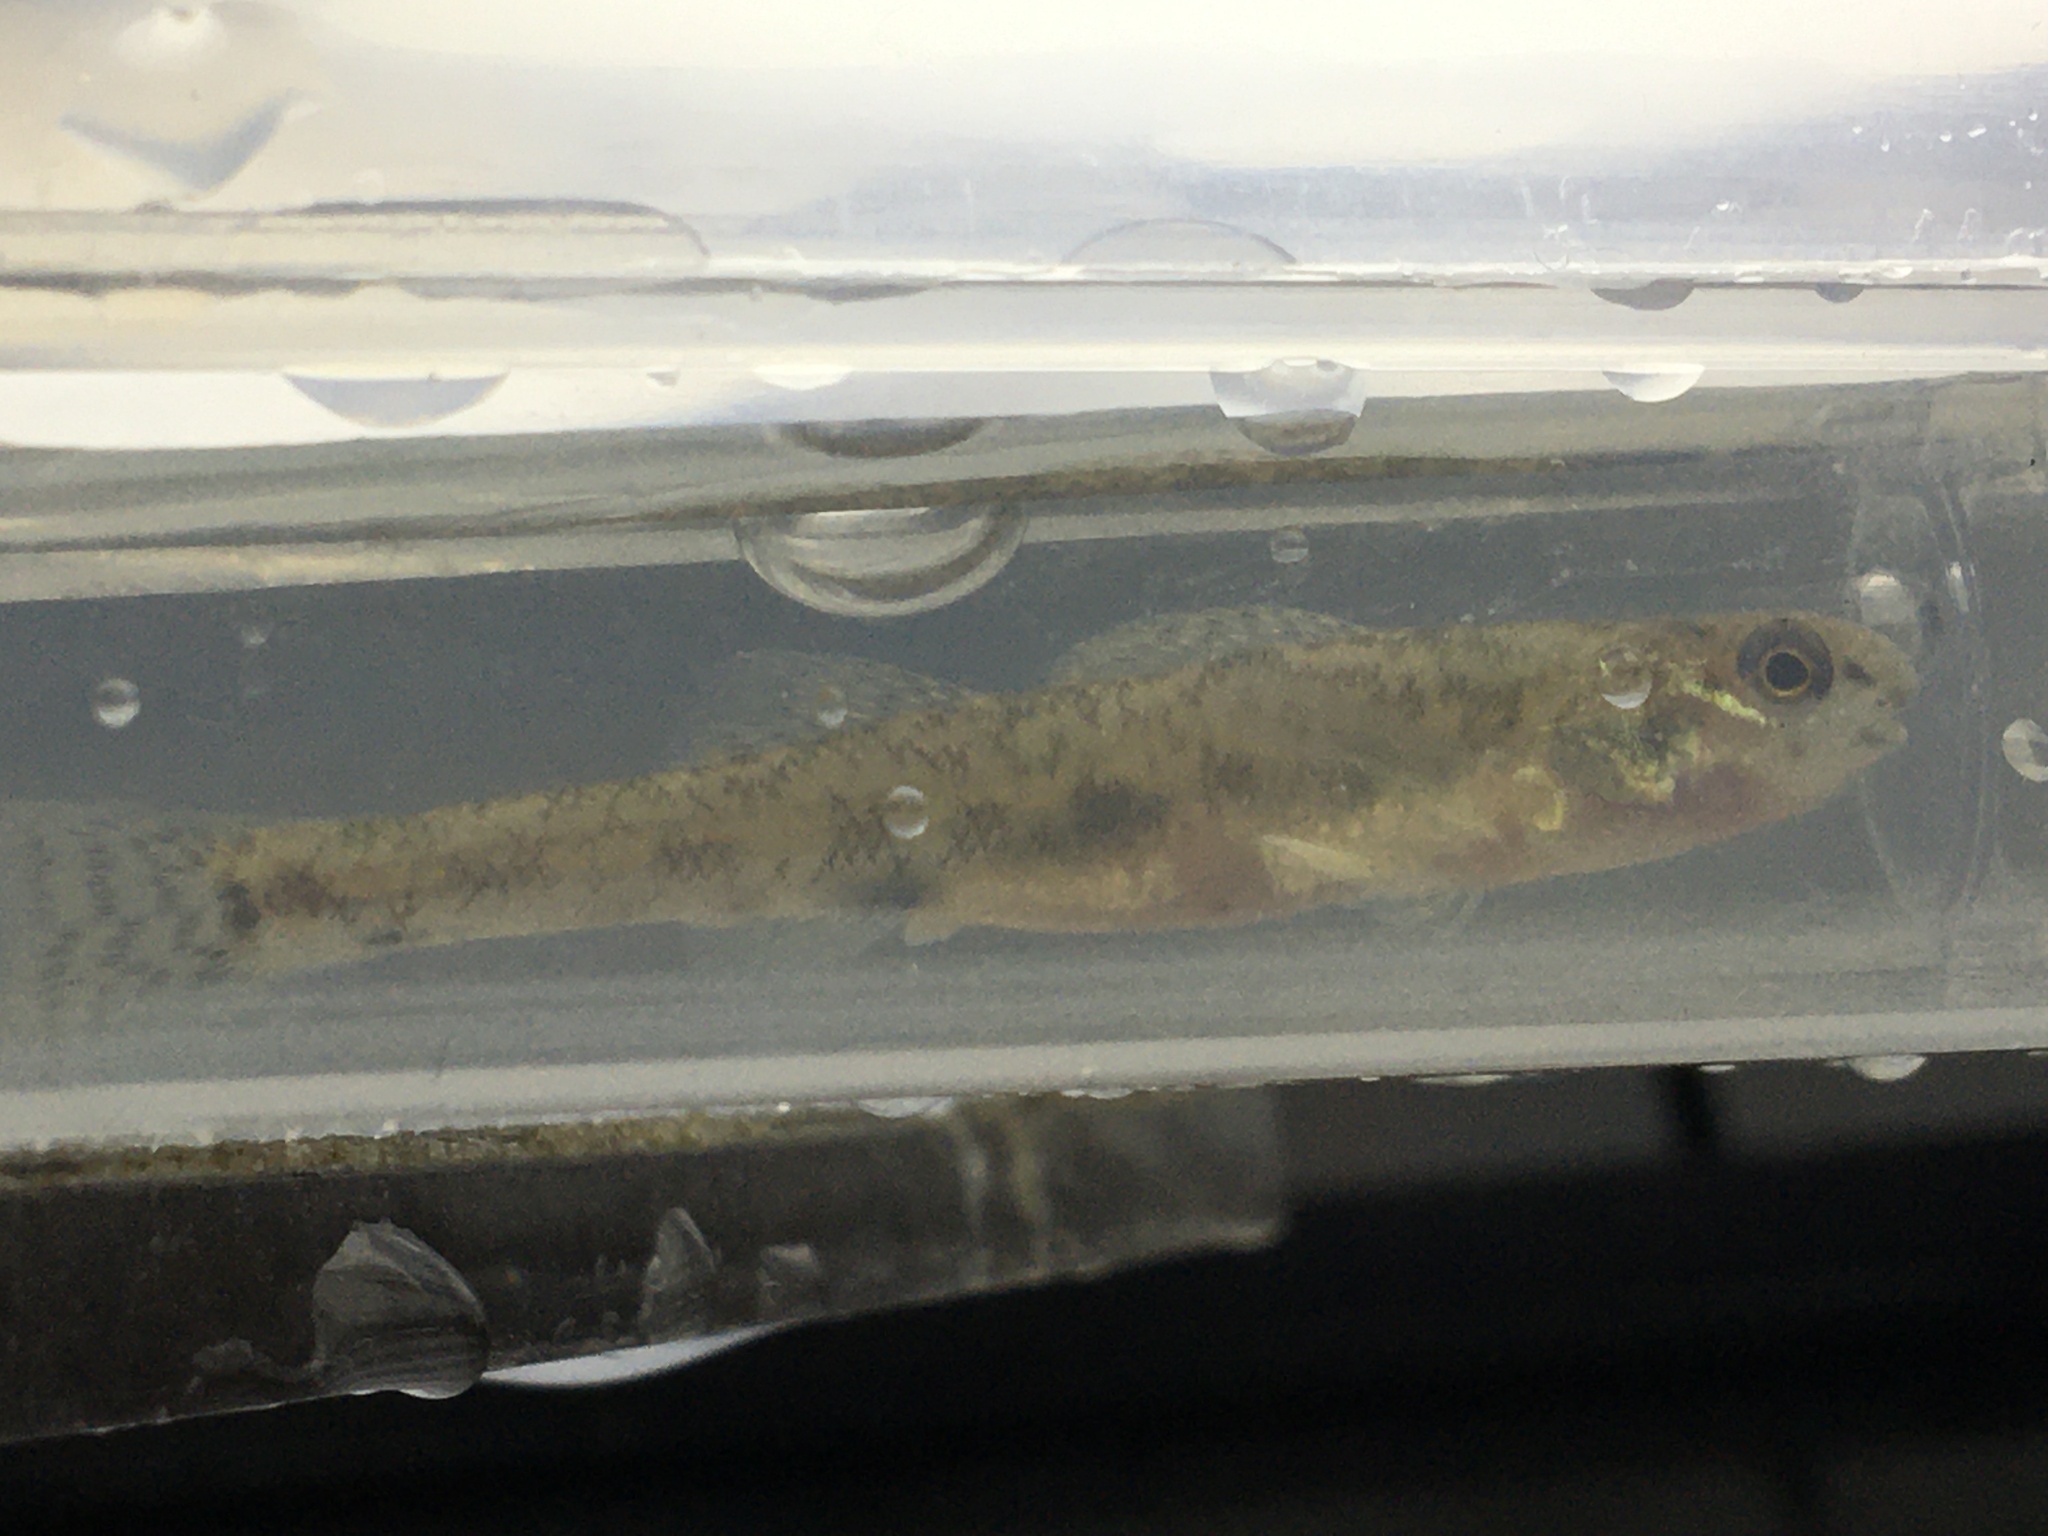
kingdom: Animalia
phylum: Chordata
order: Perciformes
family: Percidae
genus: Etheostoma
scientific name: Etheostoma nigrum
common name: Johnny darter
